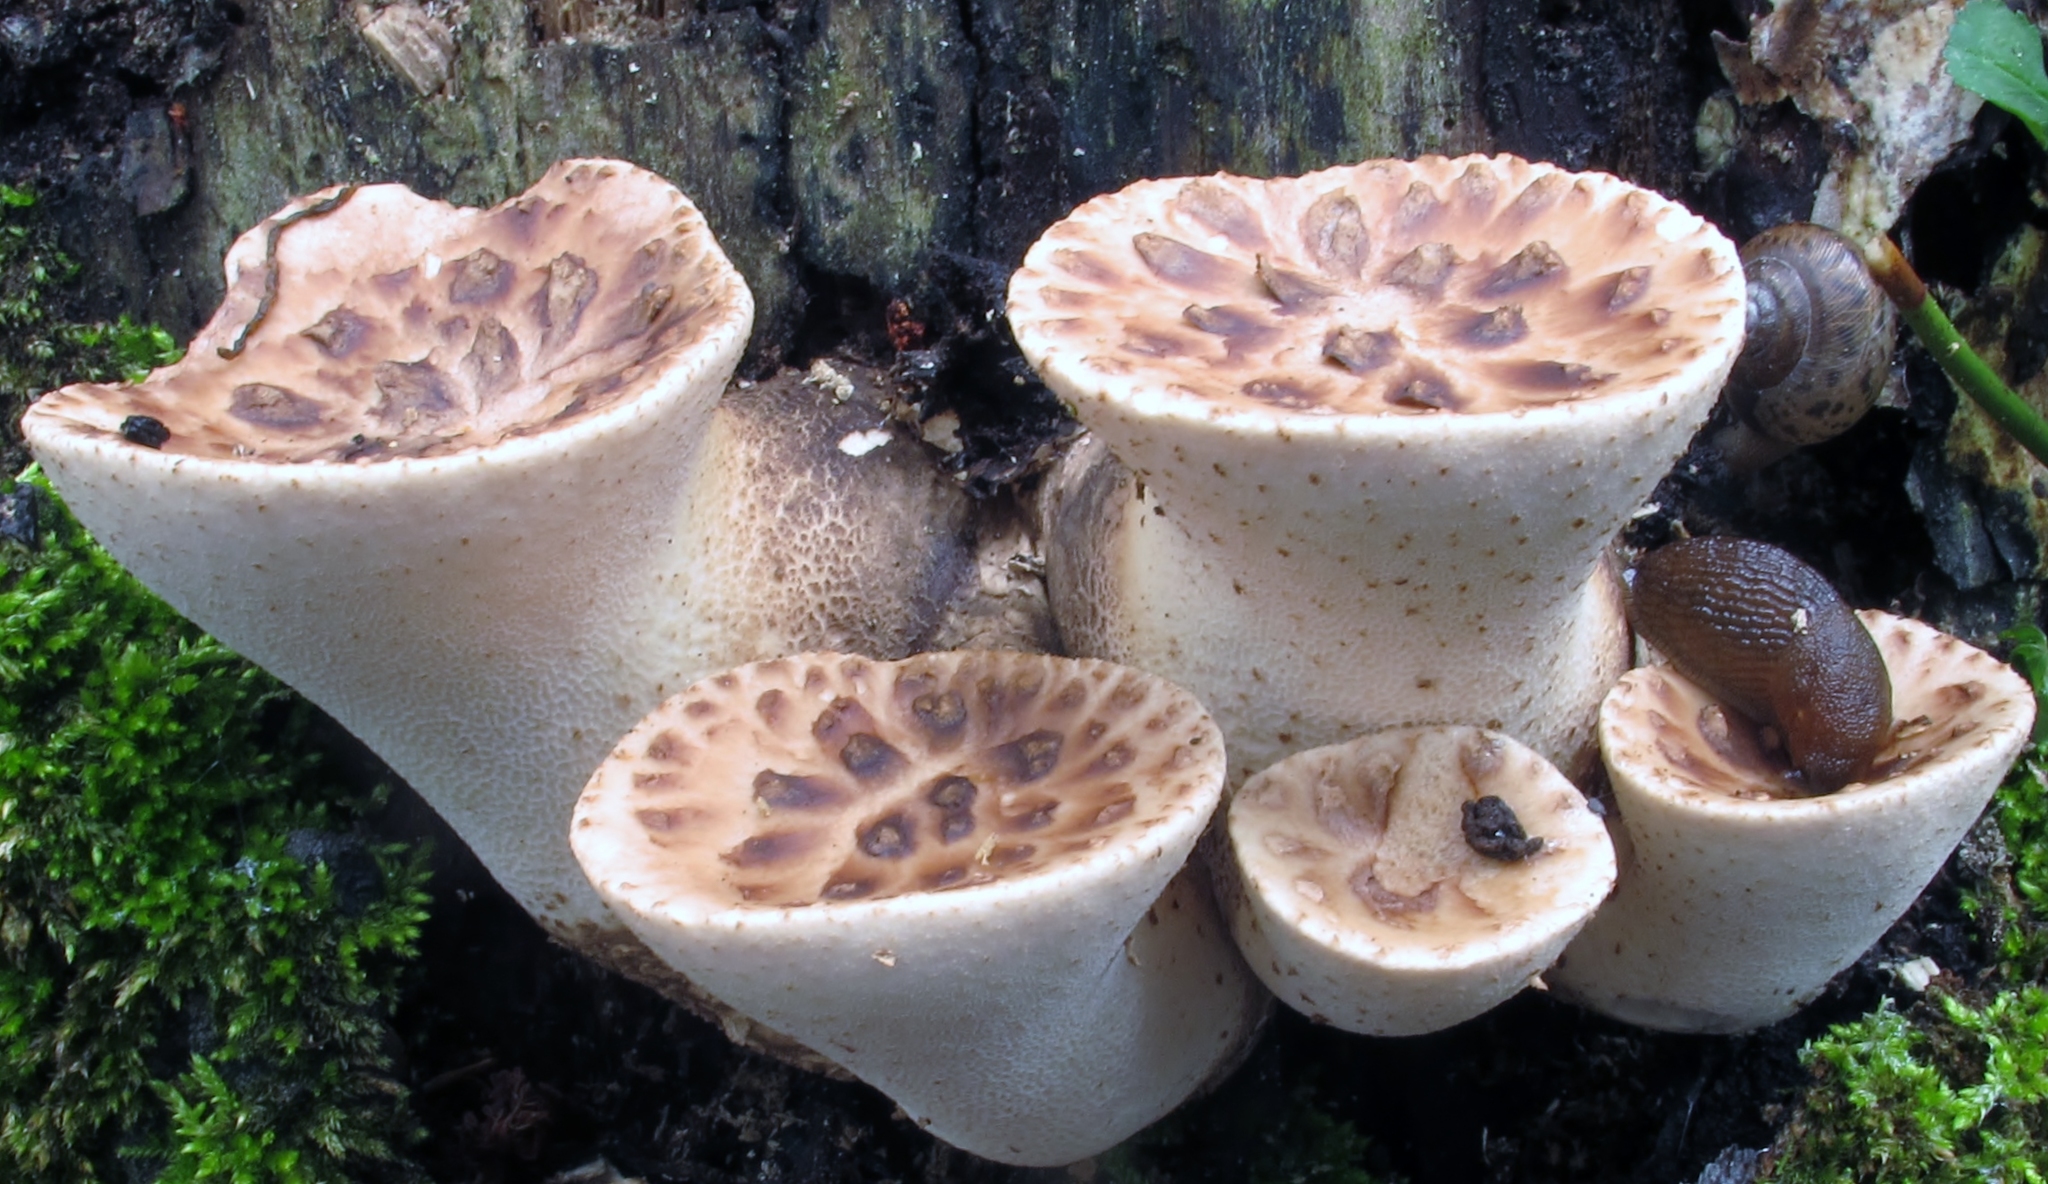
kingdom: Fungi
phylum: Basidiomycota
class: Agaricomycetes
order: Polyporales
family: Polyporaceae
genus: Cerioporus
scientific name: Cerioporus squamosus
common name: Dryad's saddle
